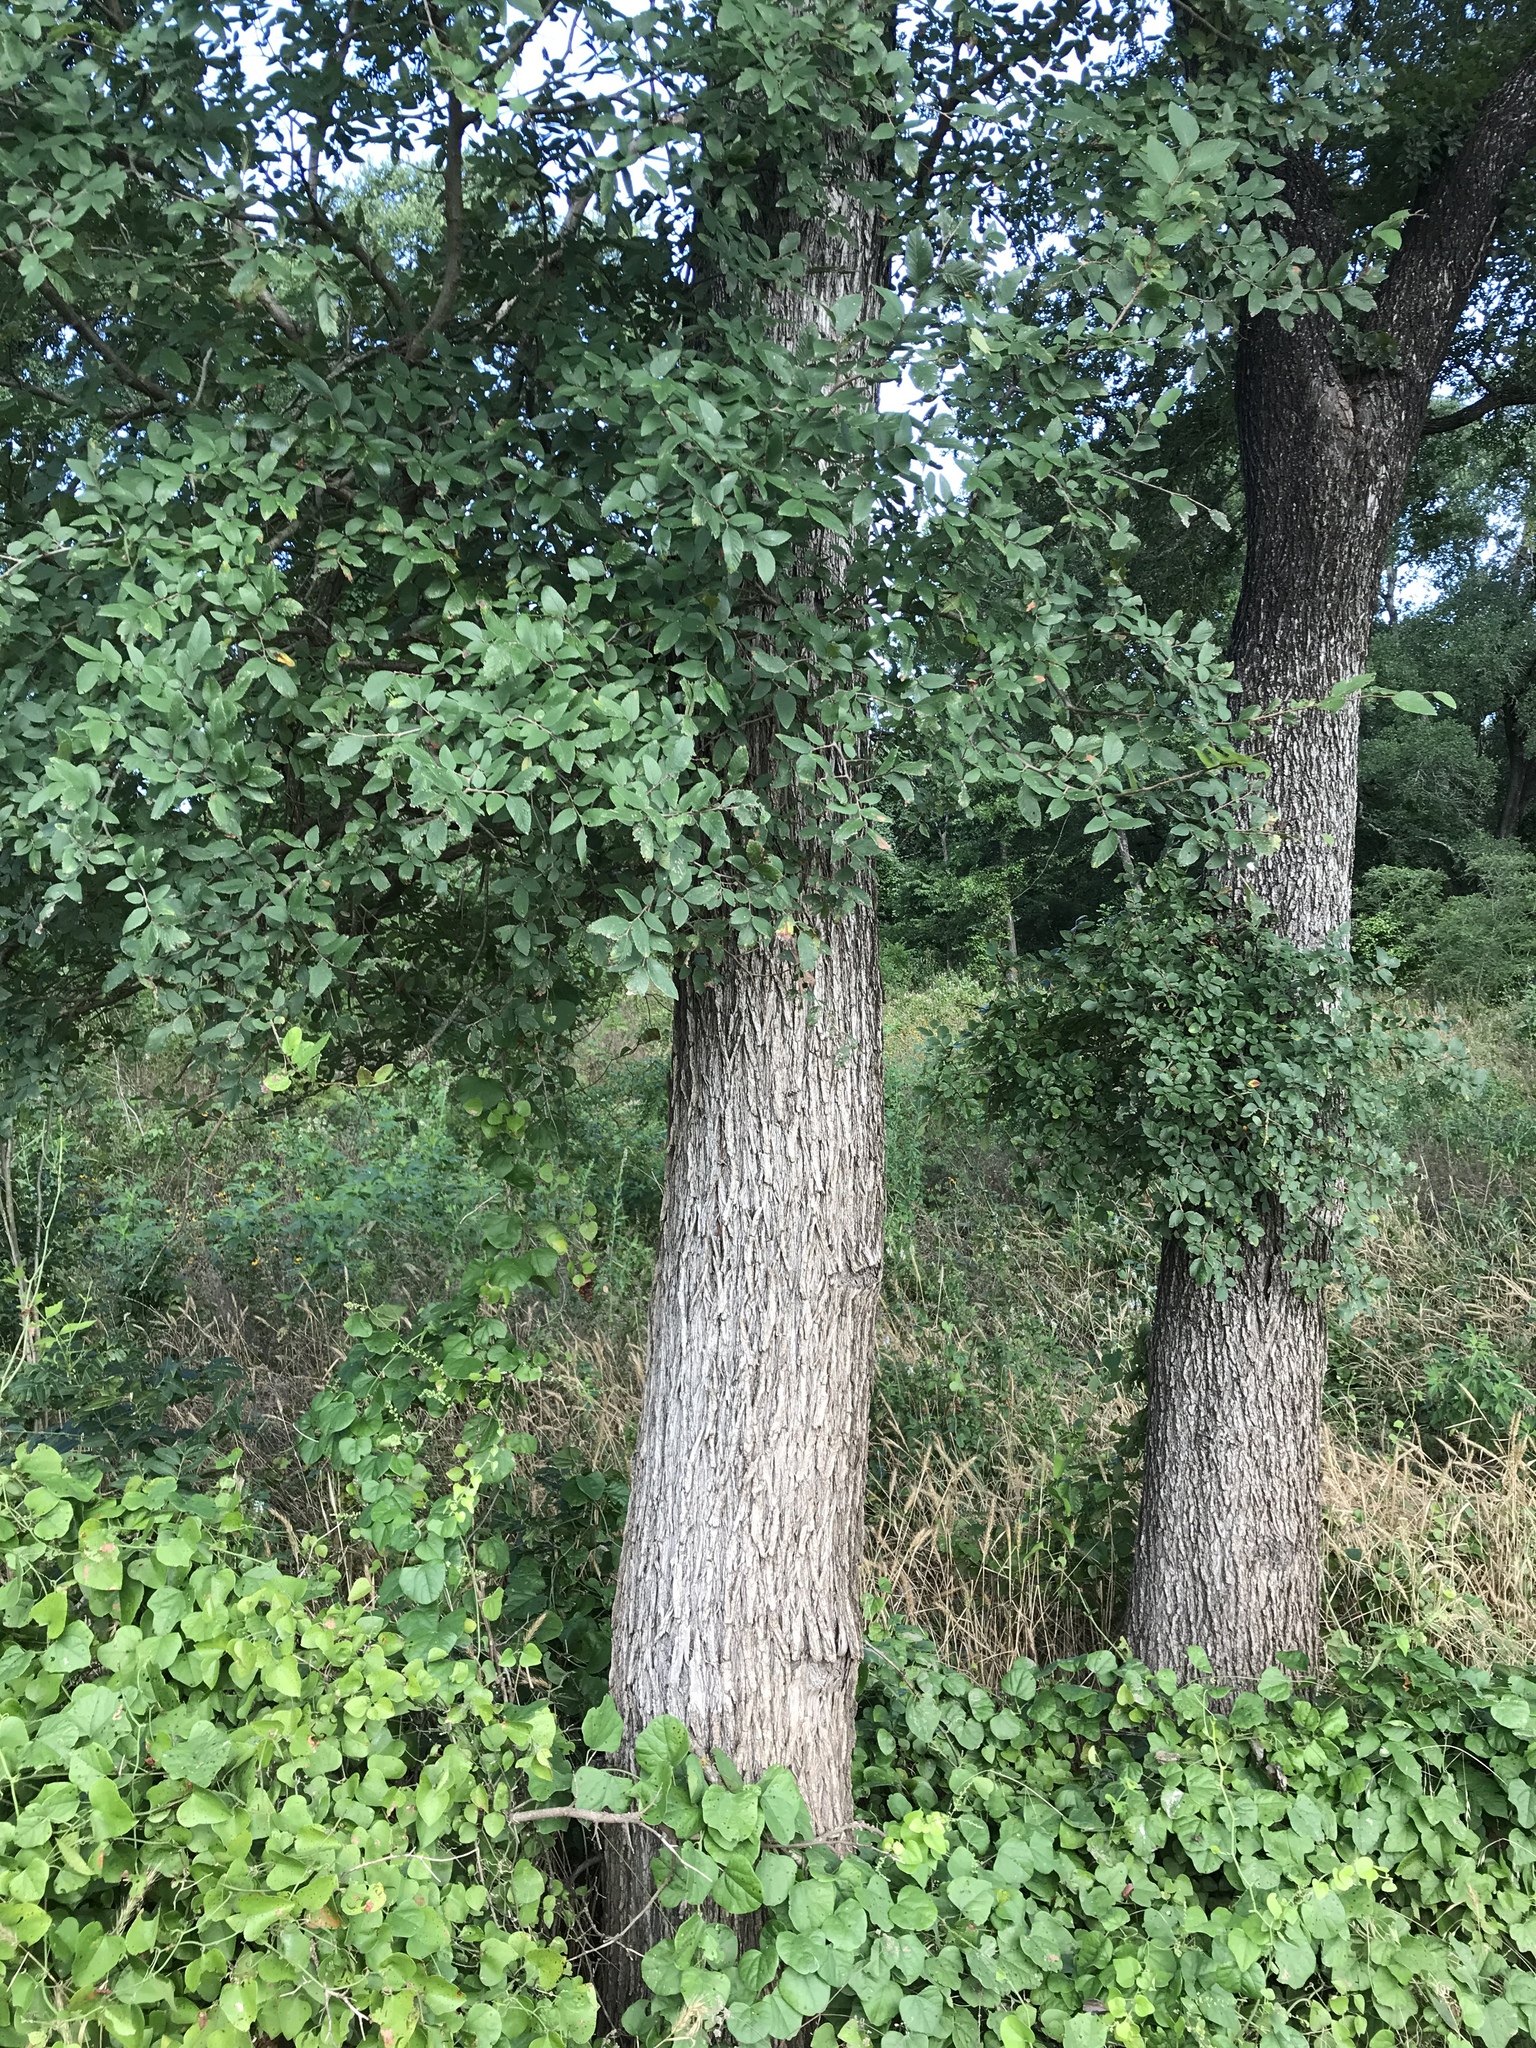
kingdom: Plantae
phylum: Tracheophyta
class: Magnoliopsida
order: Rosales
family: Ulmaceae
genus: Ulmus
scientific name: Ulmus crassifolia
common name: Basket elm
